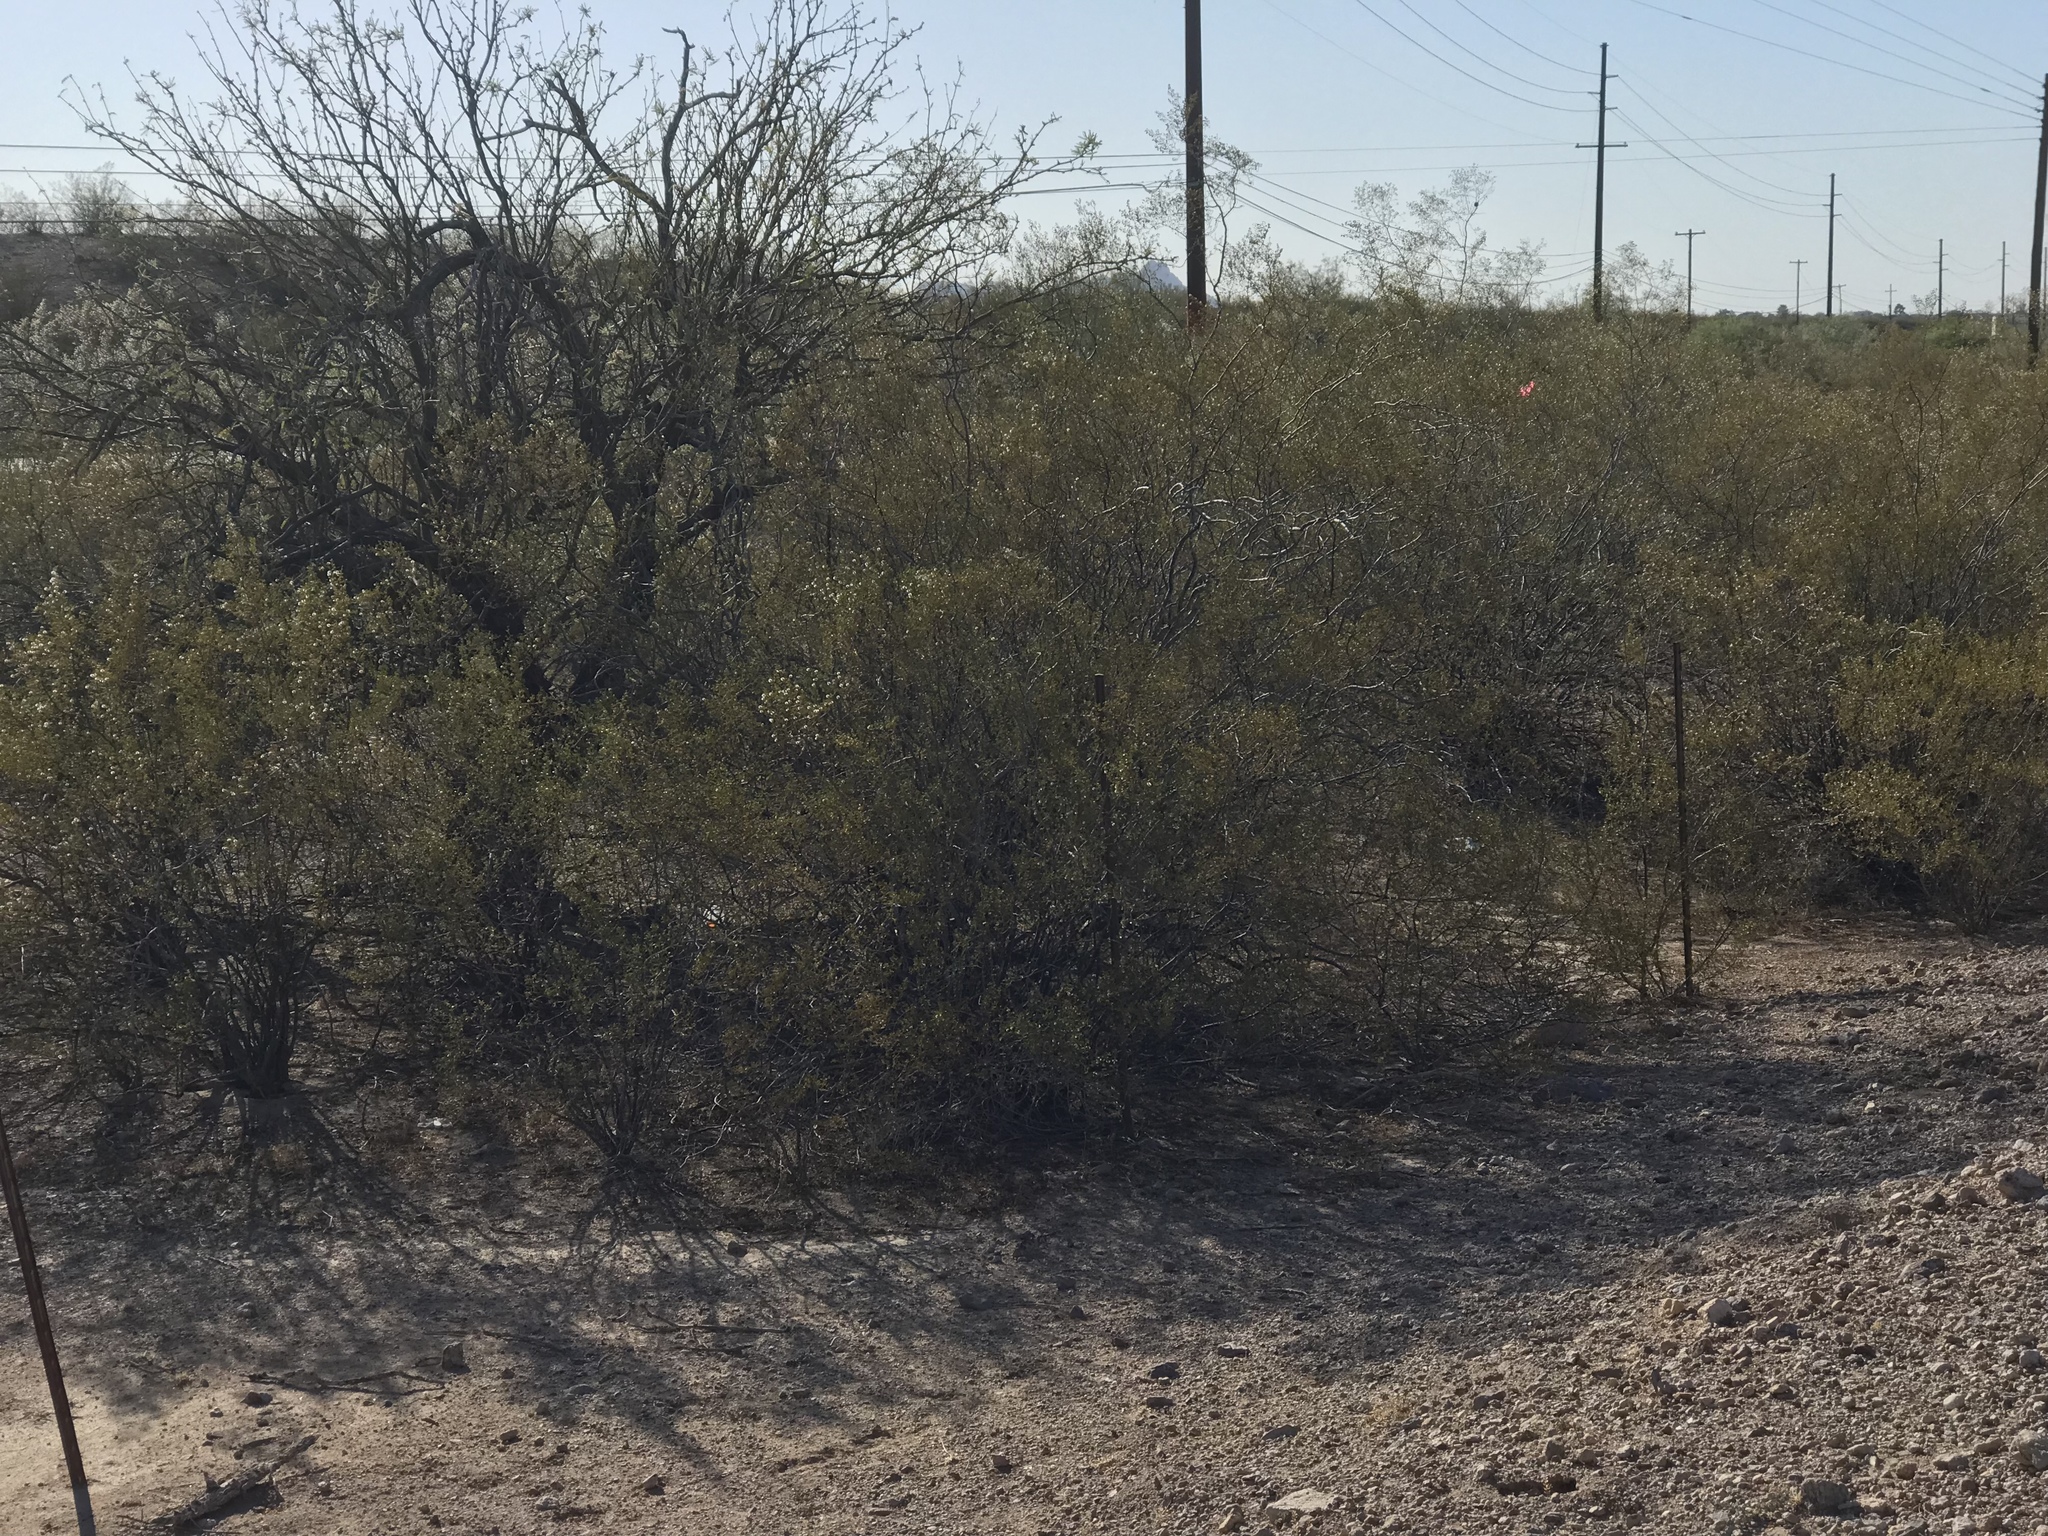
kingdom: Plantae
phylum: Tracheophyta
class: Magnoliopsida
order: Zygophyllales
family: Zygophyllaceae
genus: Larrea
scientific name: Larrea tridentata
